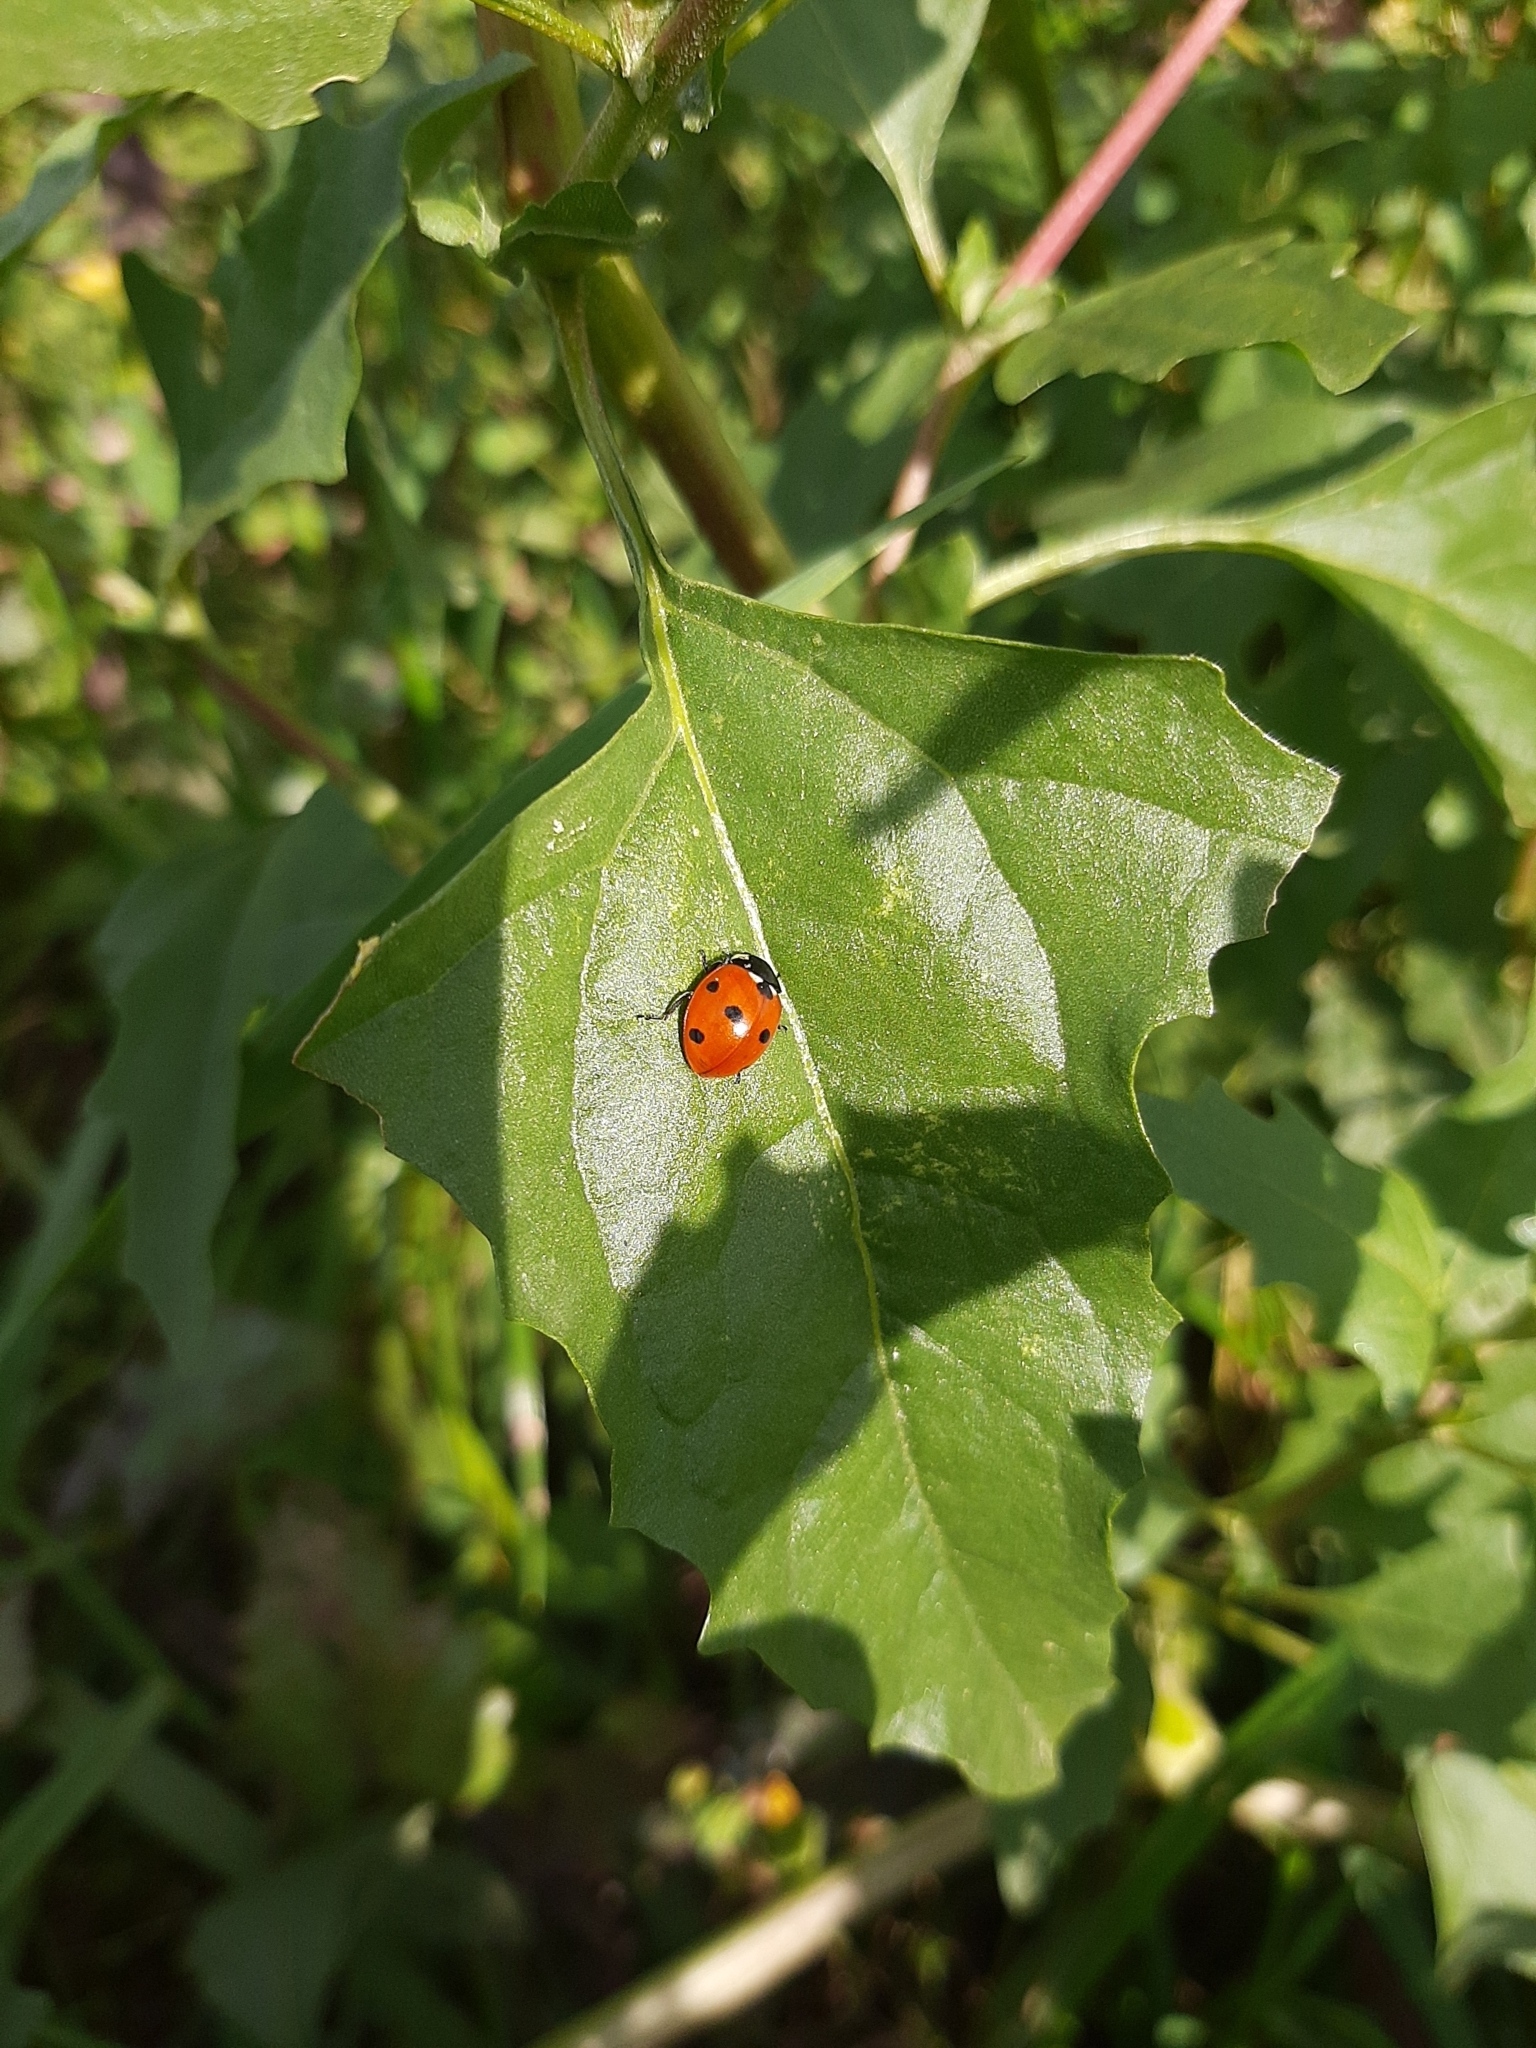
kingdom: Animalia
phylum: Arthropoda
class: Insecta
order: Coleoptera
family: Coccinellidae
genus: Coccinella
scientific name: Coccinella septempunctata
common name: Sevenspotted lady beetle
